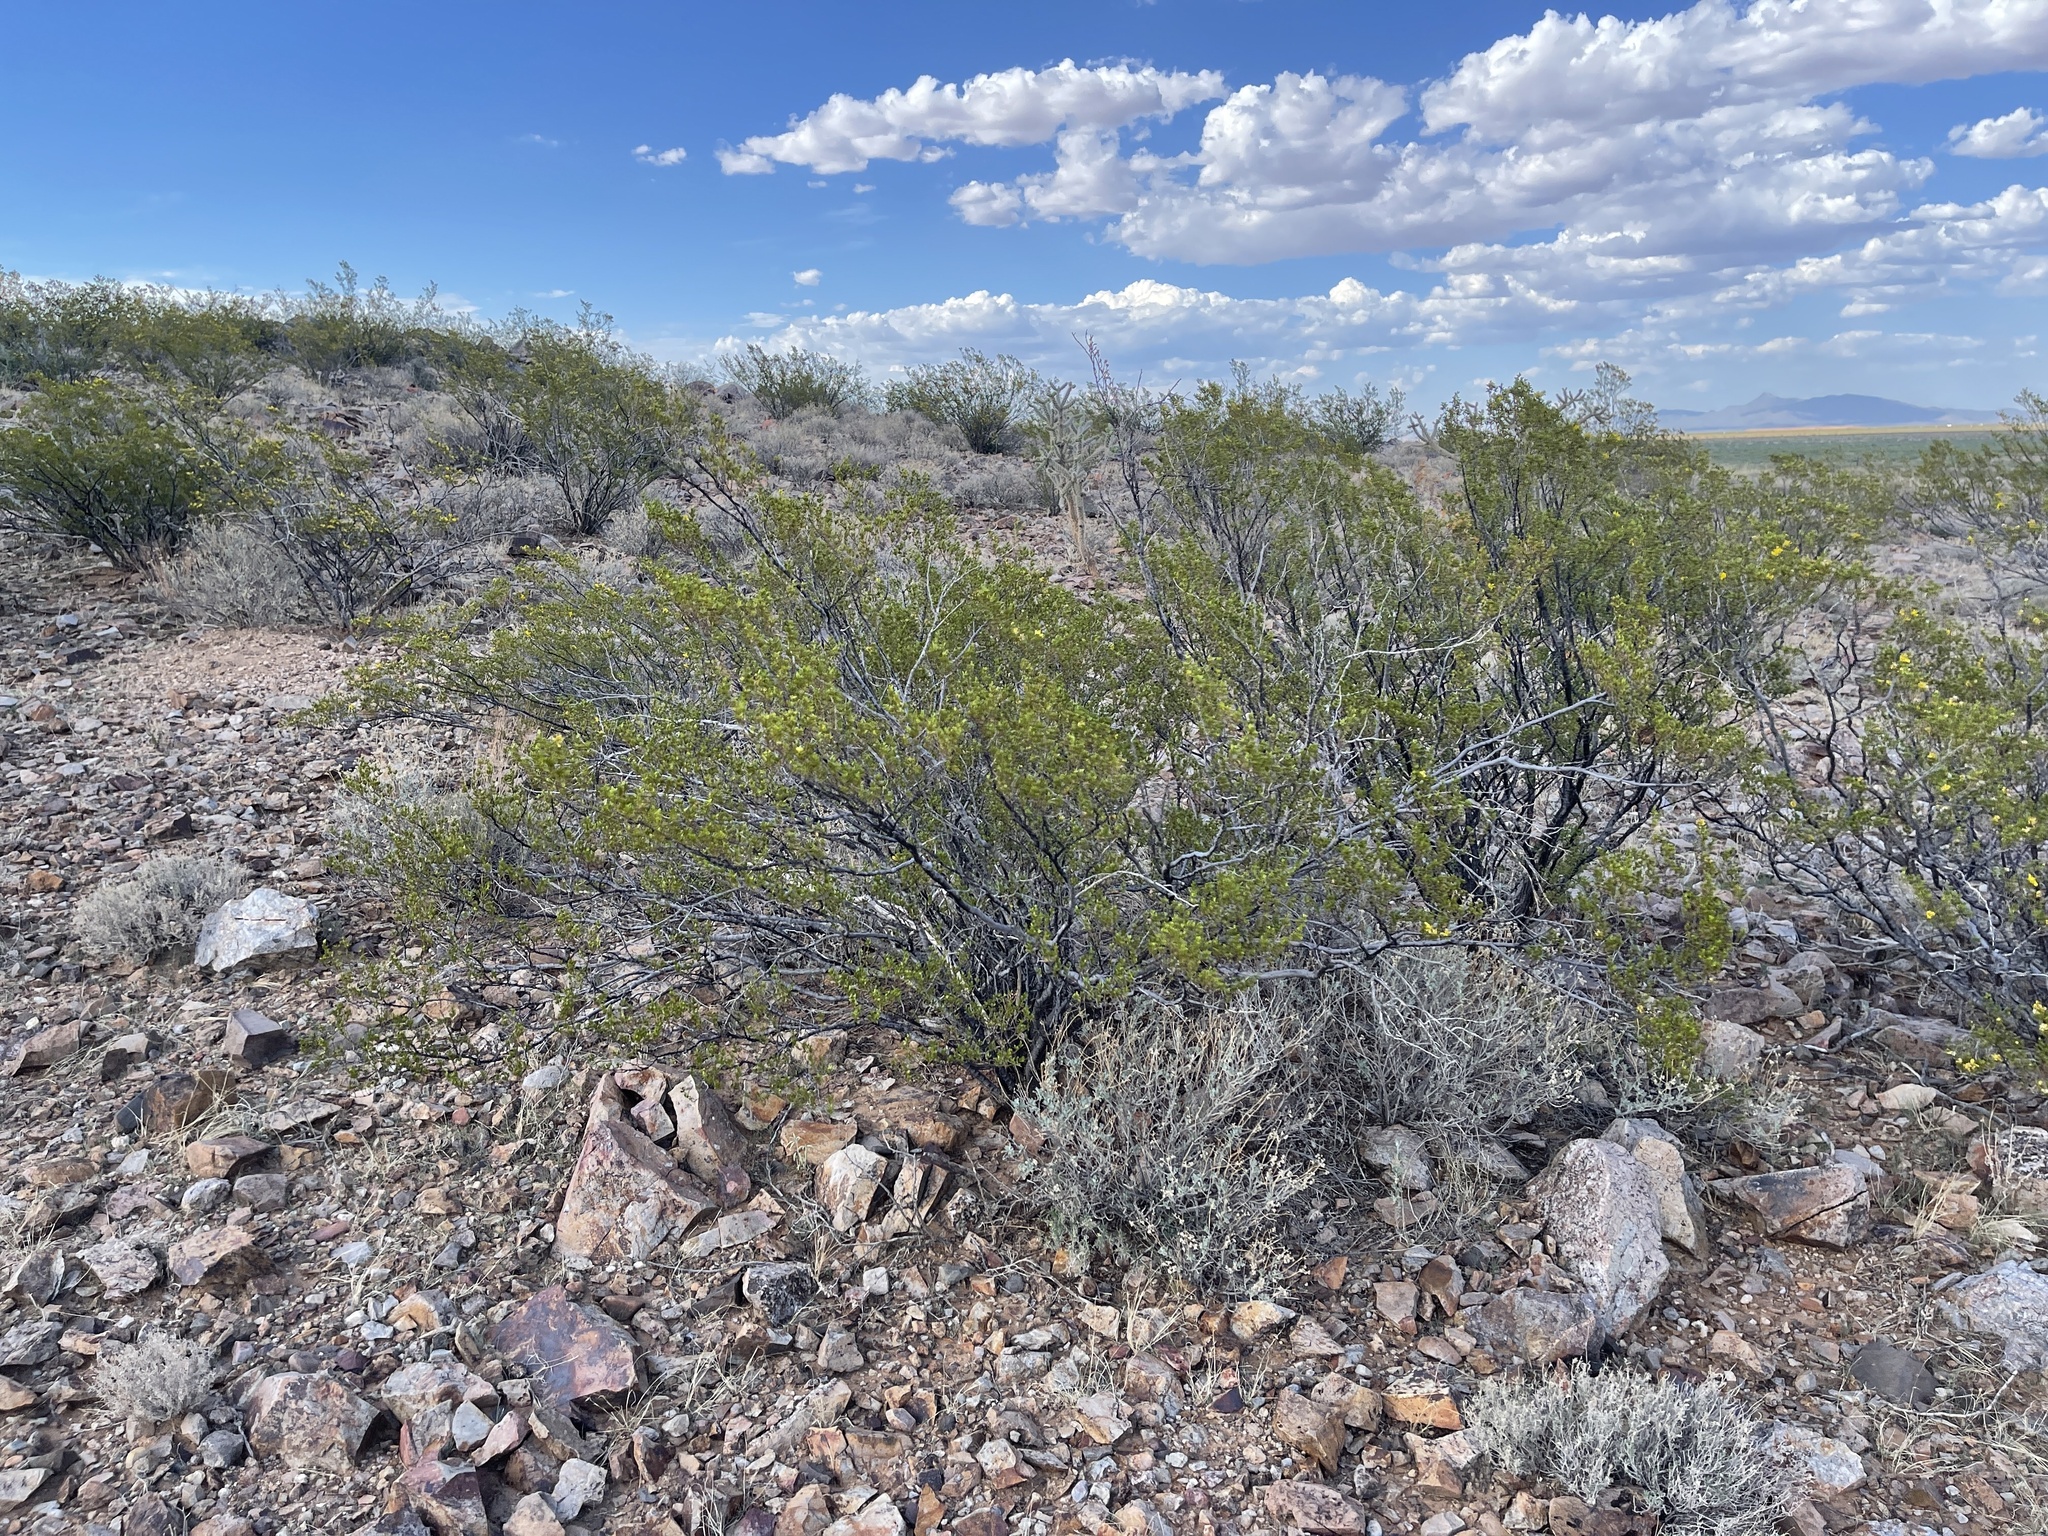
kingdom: Plantae
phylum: Tracheophyta
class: Magnoliopsida
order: Zygophyllales
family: Zygophyllaceae
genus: Larrea
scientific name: Larrea tridentata
